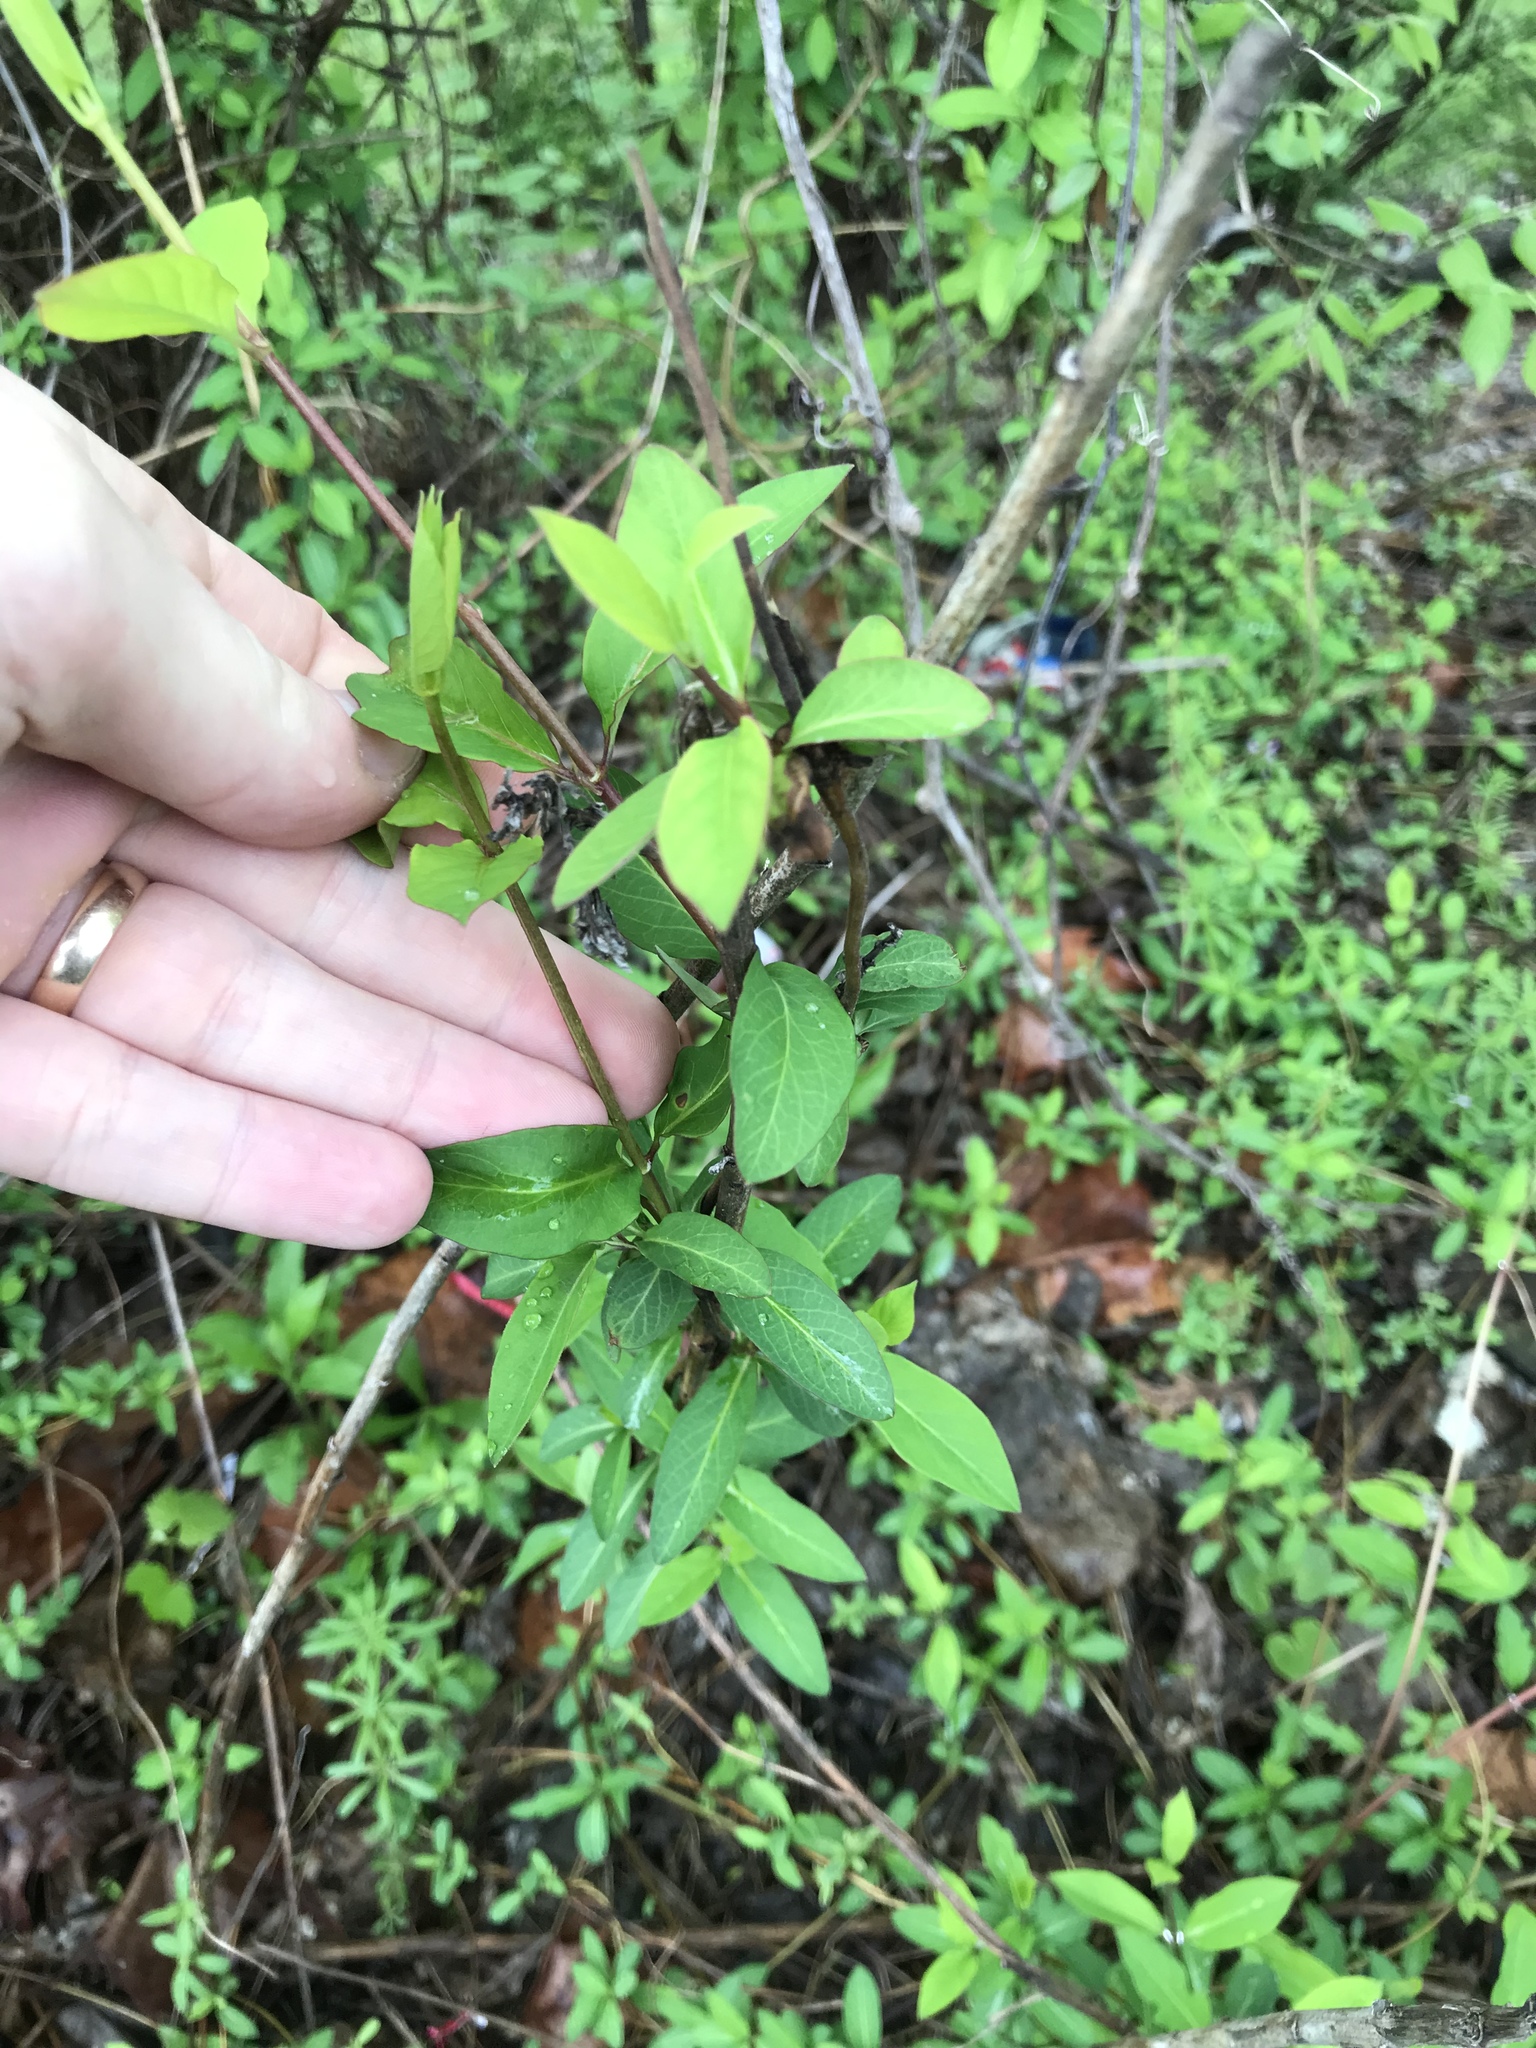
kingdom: Plantae
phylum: Tracheophyta
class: Magnoliopsida
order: Dipsacales
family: Caprifoliaceae
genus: Lonicera
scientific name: Lonicera japonica
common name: Japanese honeysuckle
